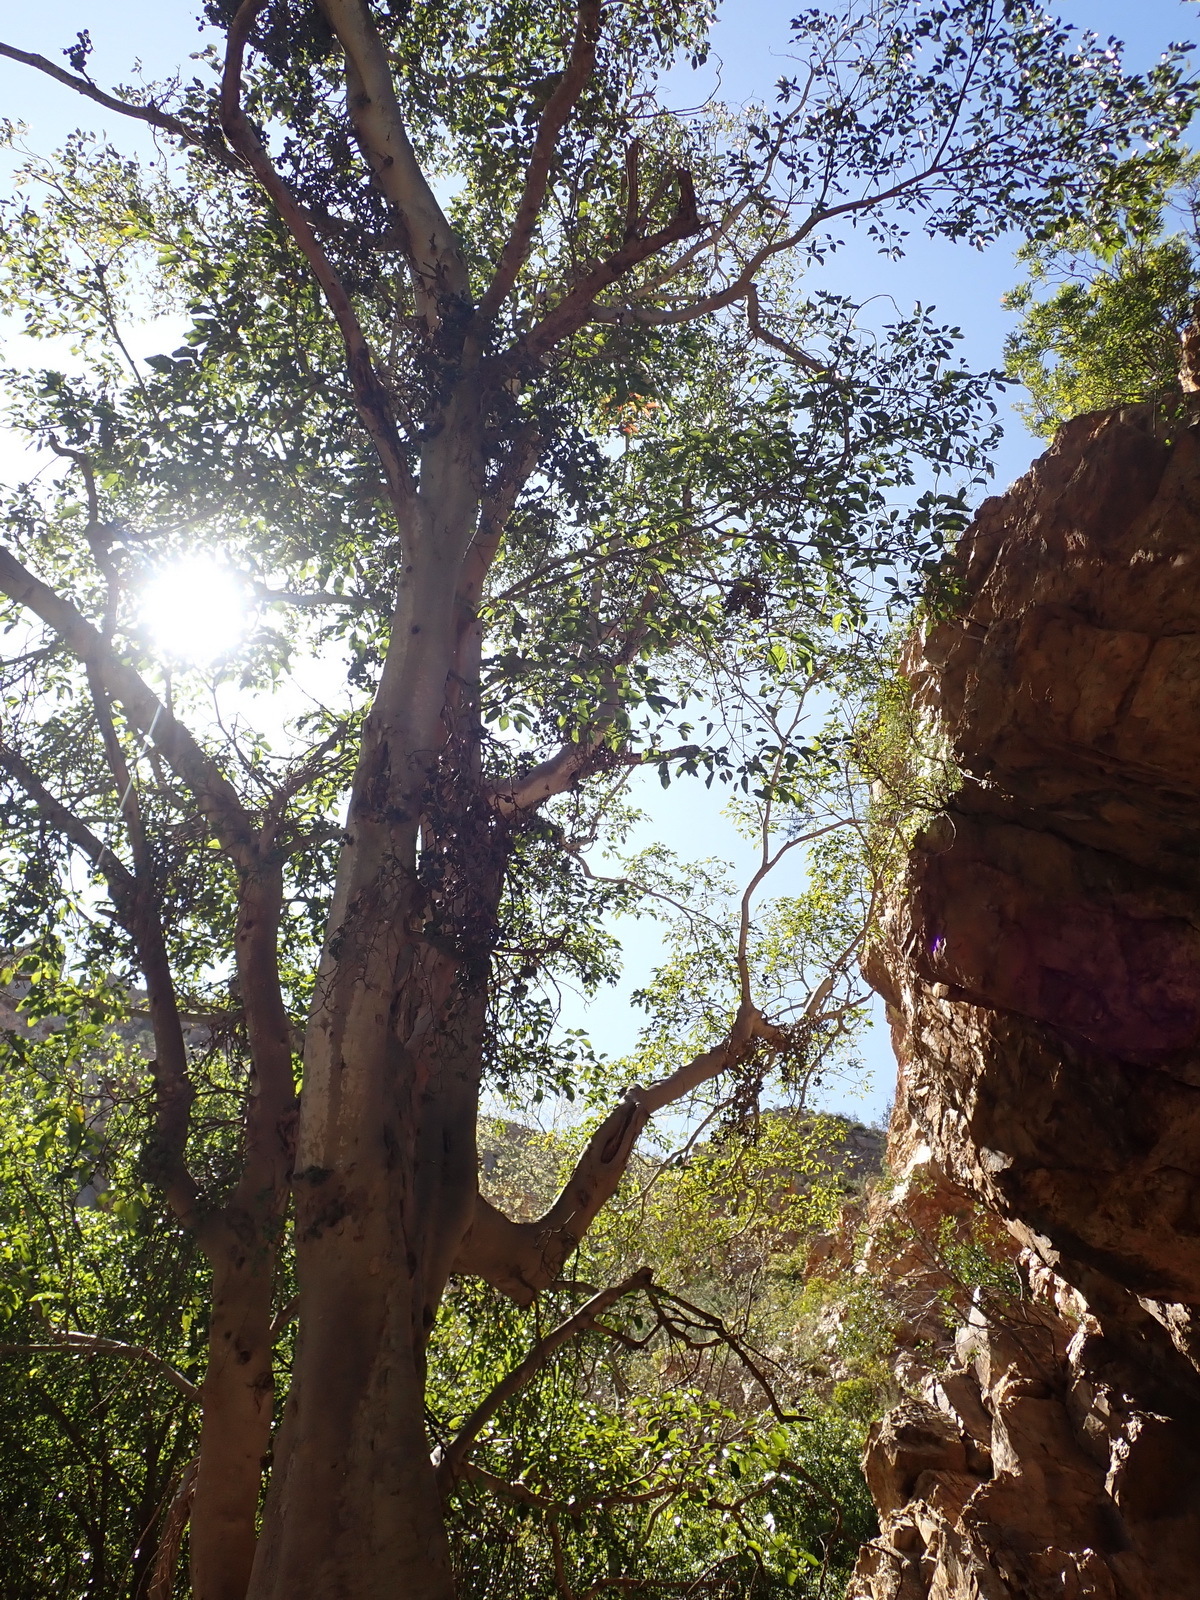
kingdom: Plantae
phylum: Tracheophyta
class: Magnoliopsida
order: Rosales
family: Moraceae
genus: Ficus
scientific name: Ficus sur
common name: Cape fig
